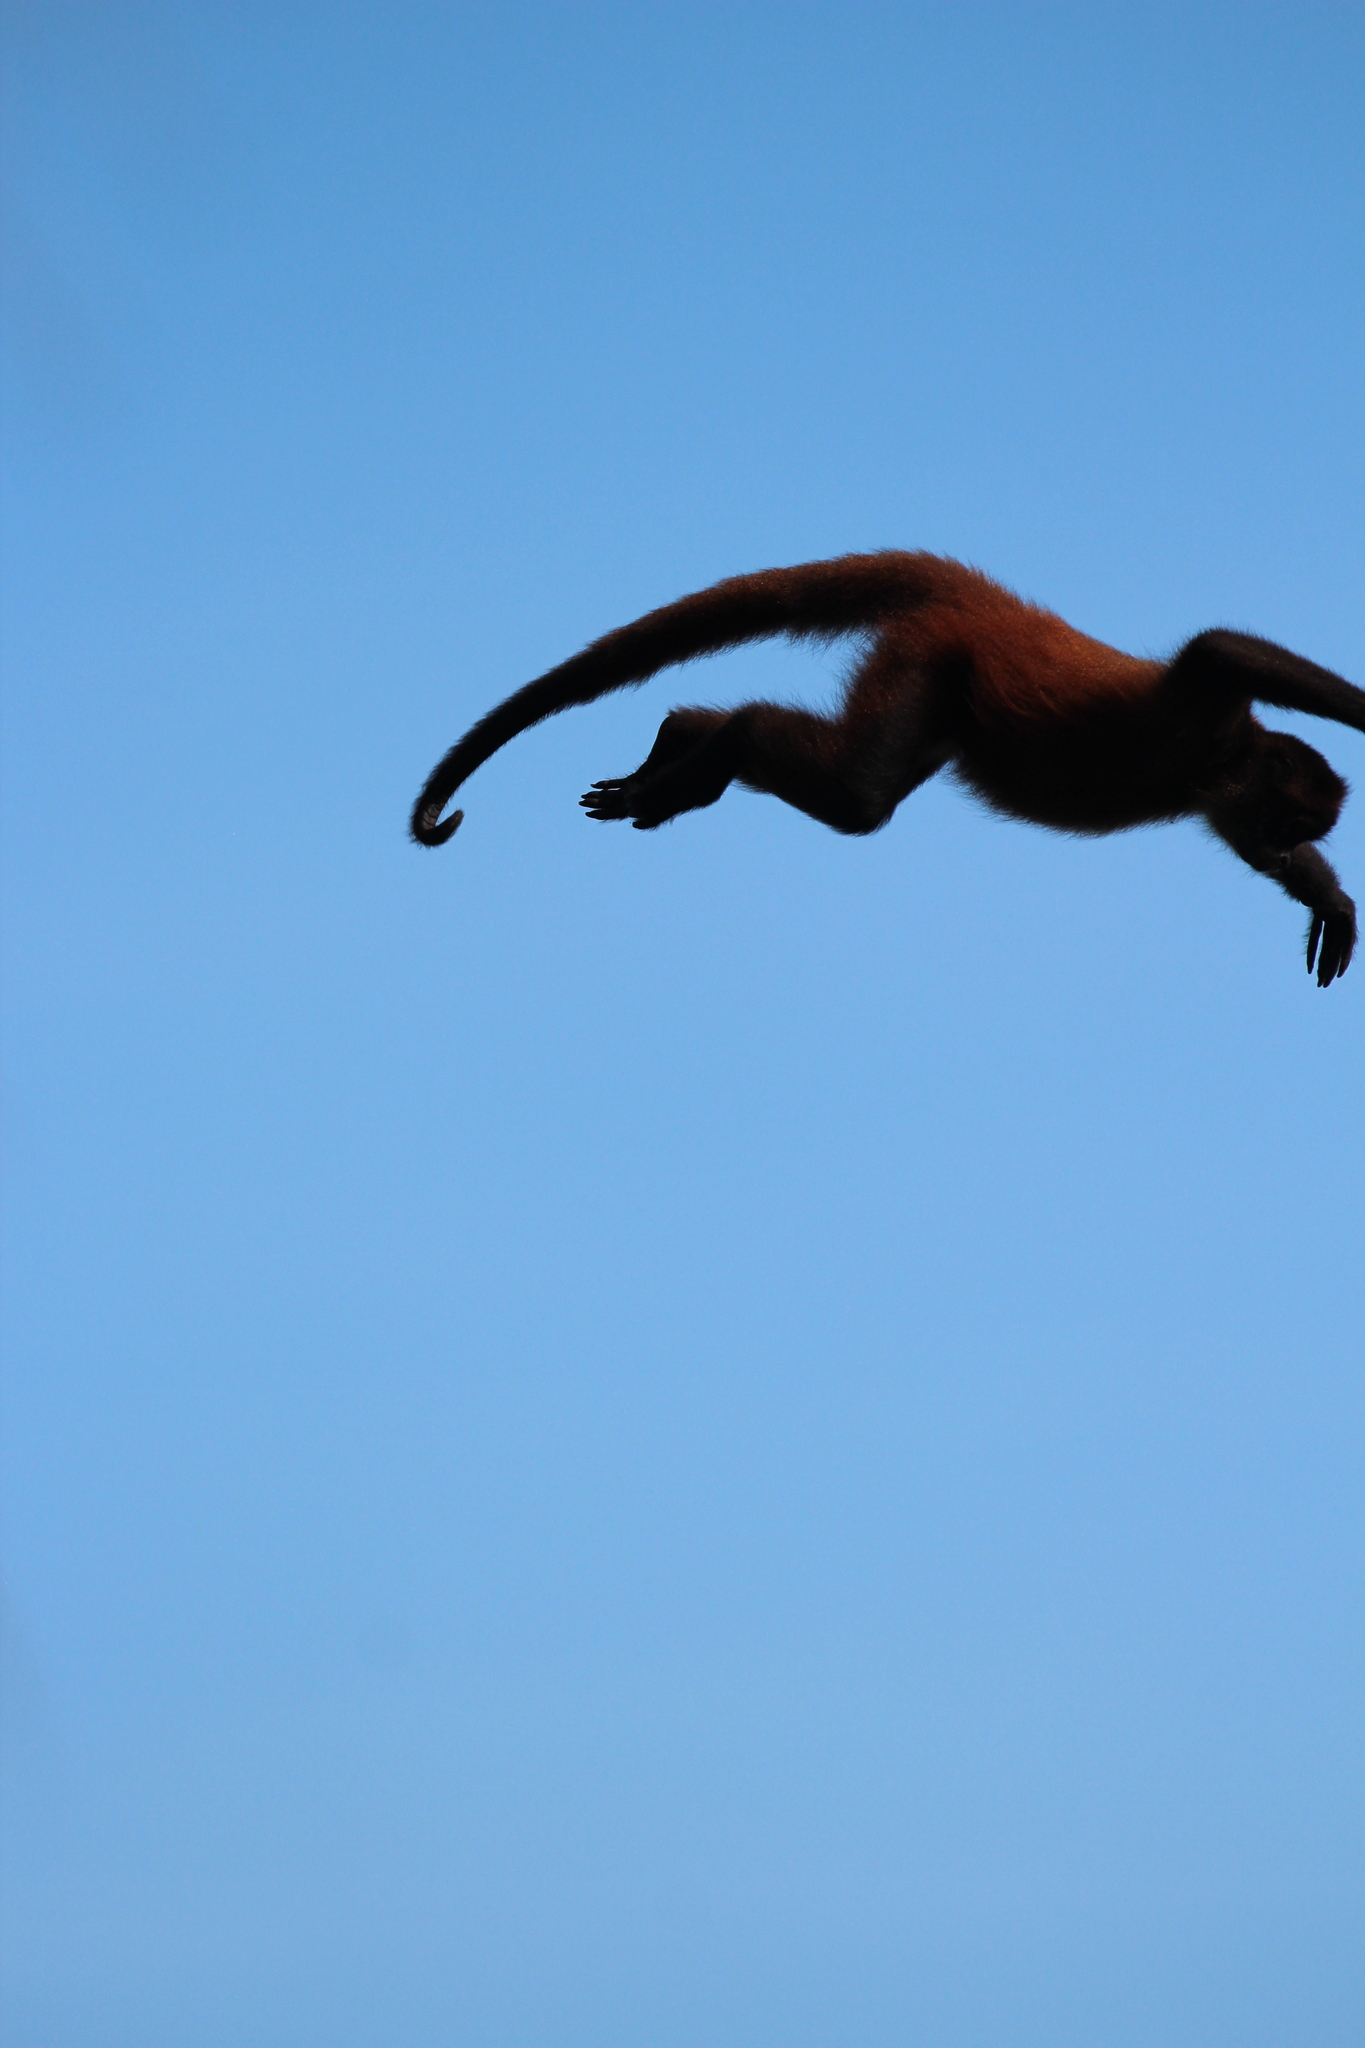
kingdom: Animalia
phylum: Chordata
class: Mammalia
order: Primates
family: Atelidae
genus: Ateles
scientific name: Ateles geoffroyi
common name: Black-handed spider monkey
